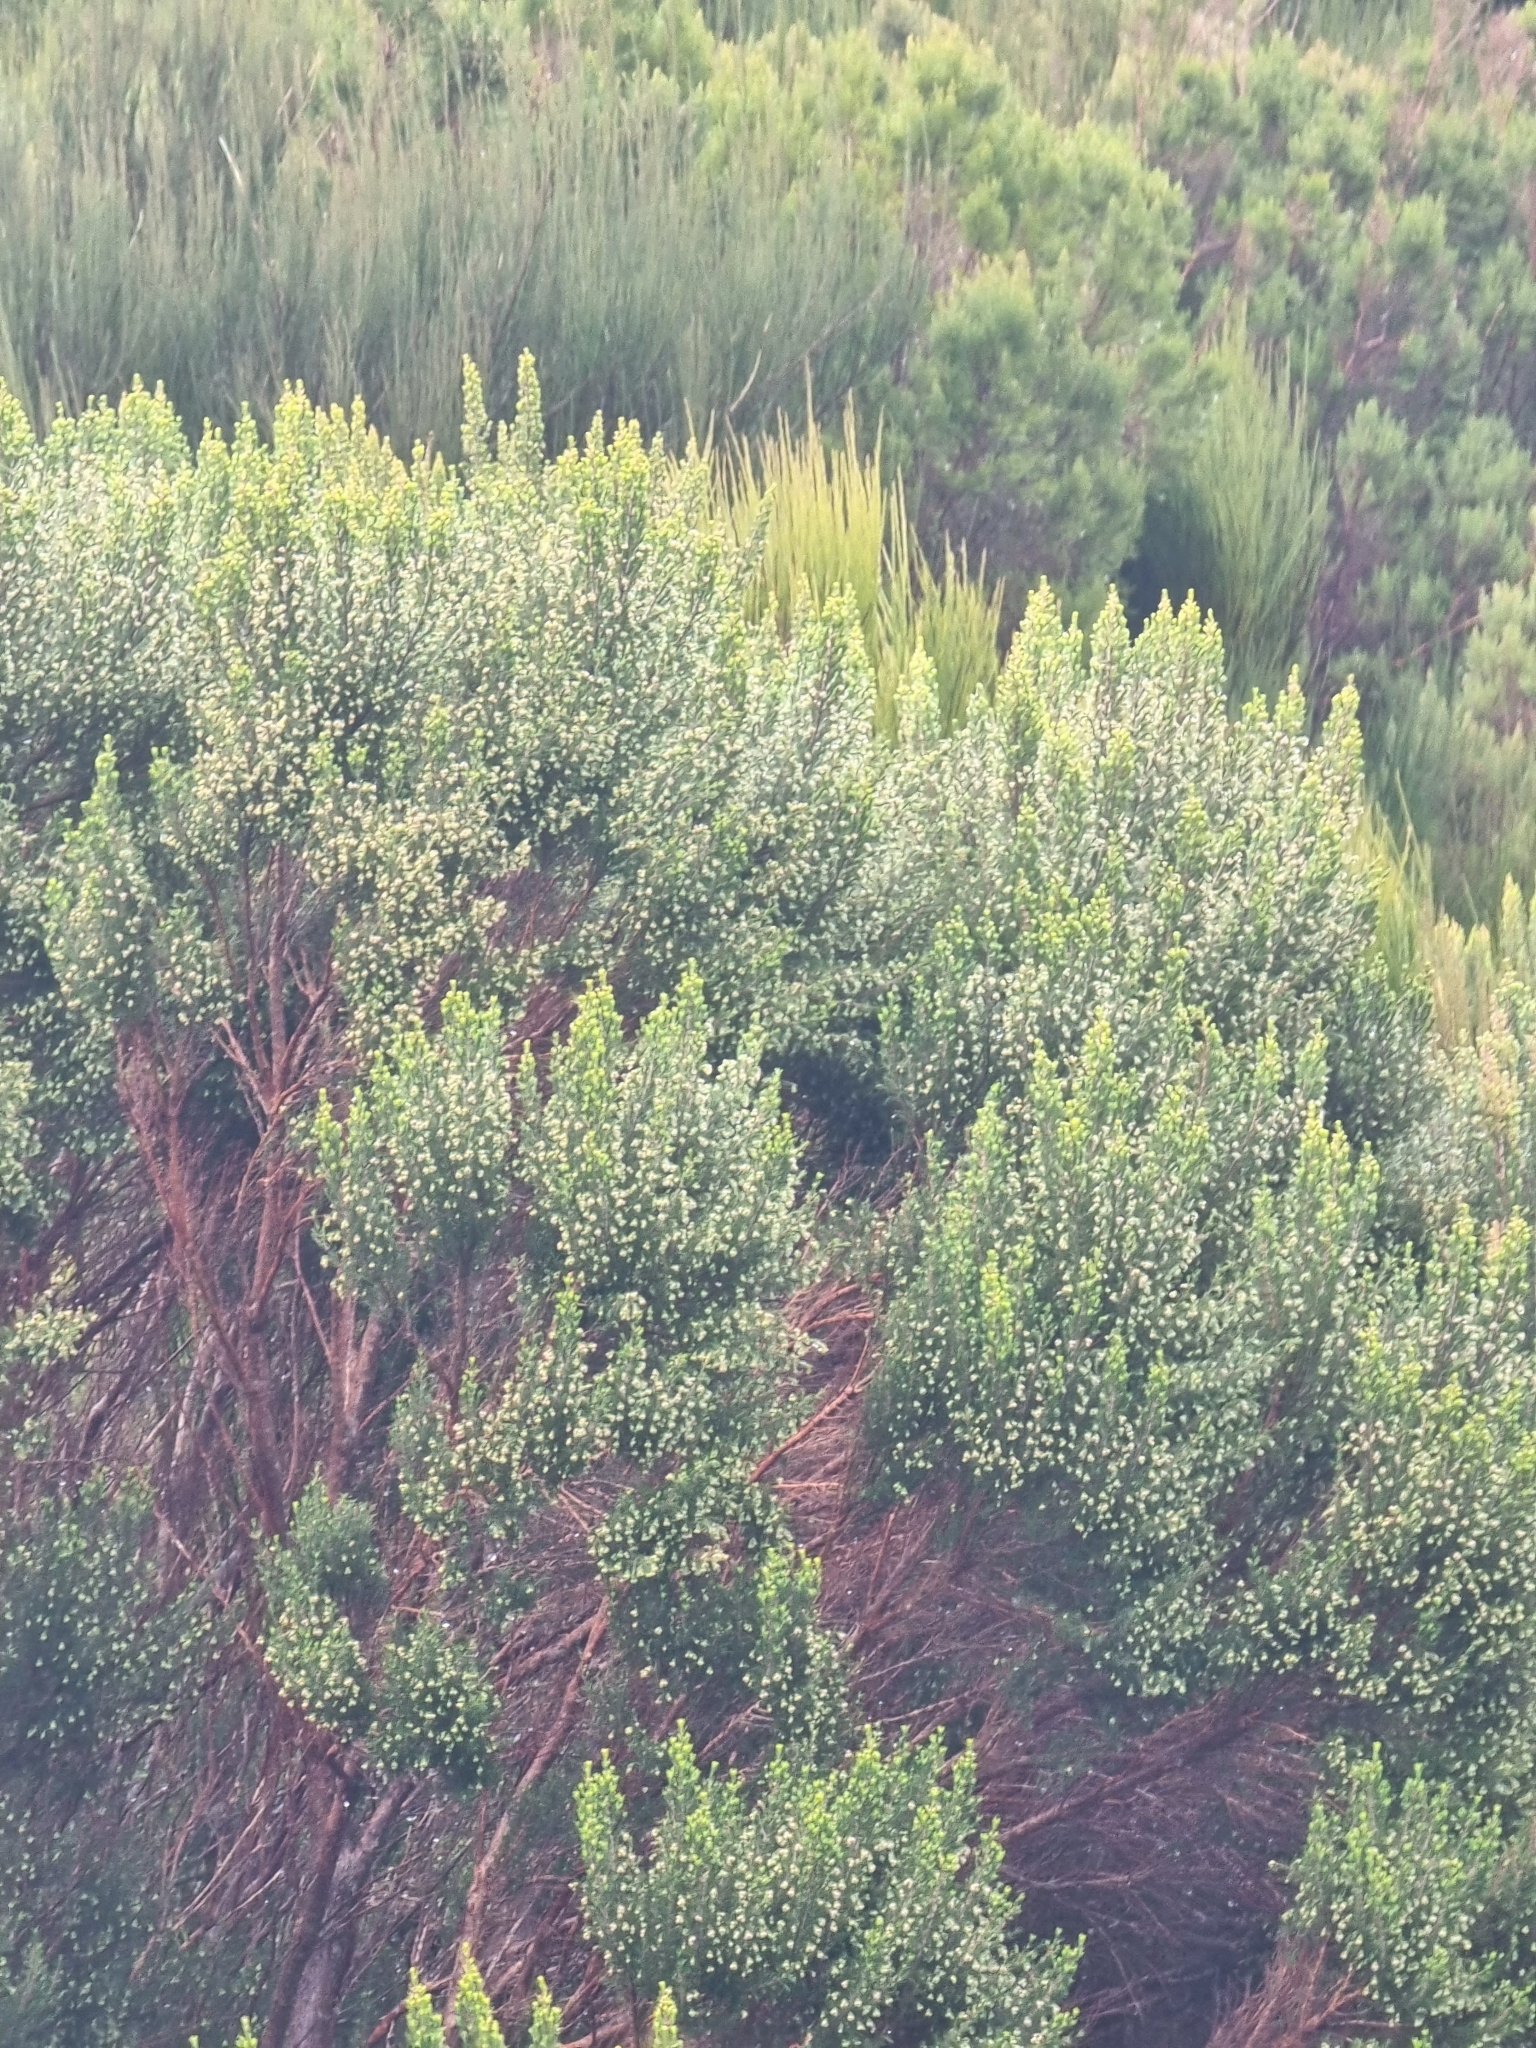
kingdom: Plantae
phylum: Tracheophyta
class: Magnoliopsida
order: Ericales
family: Ericaceae
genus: Erica
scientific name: Erica canariensis
